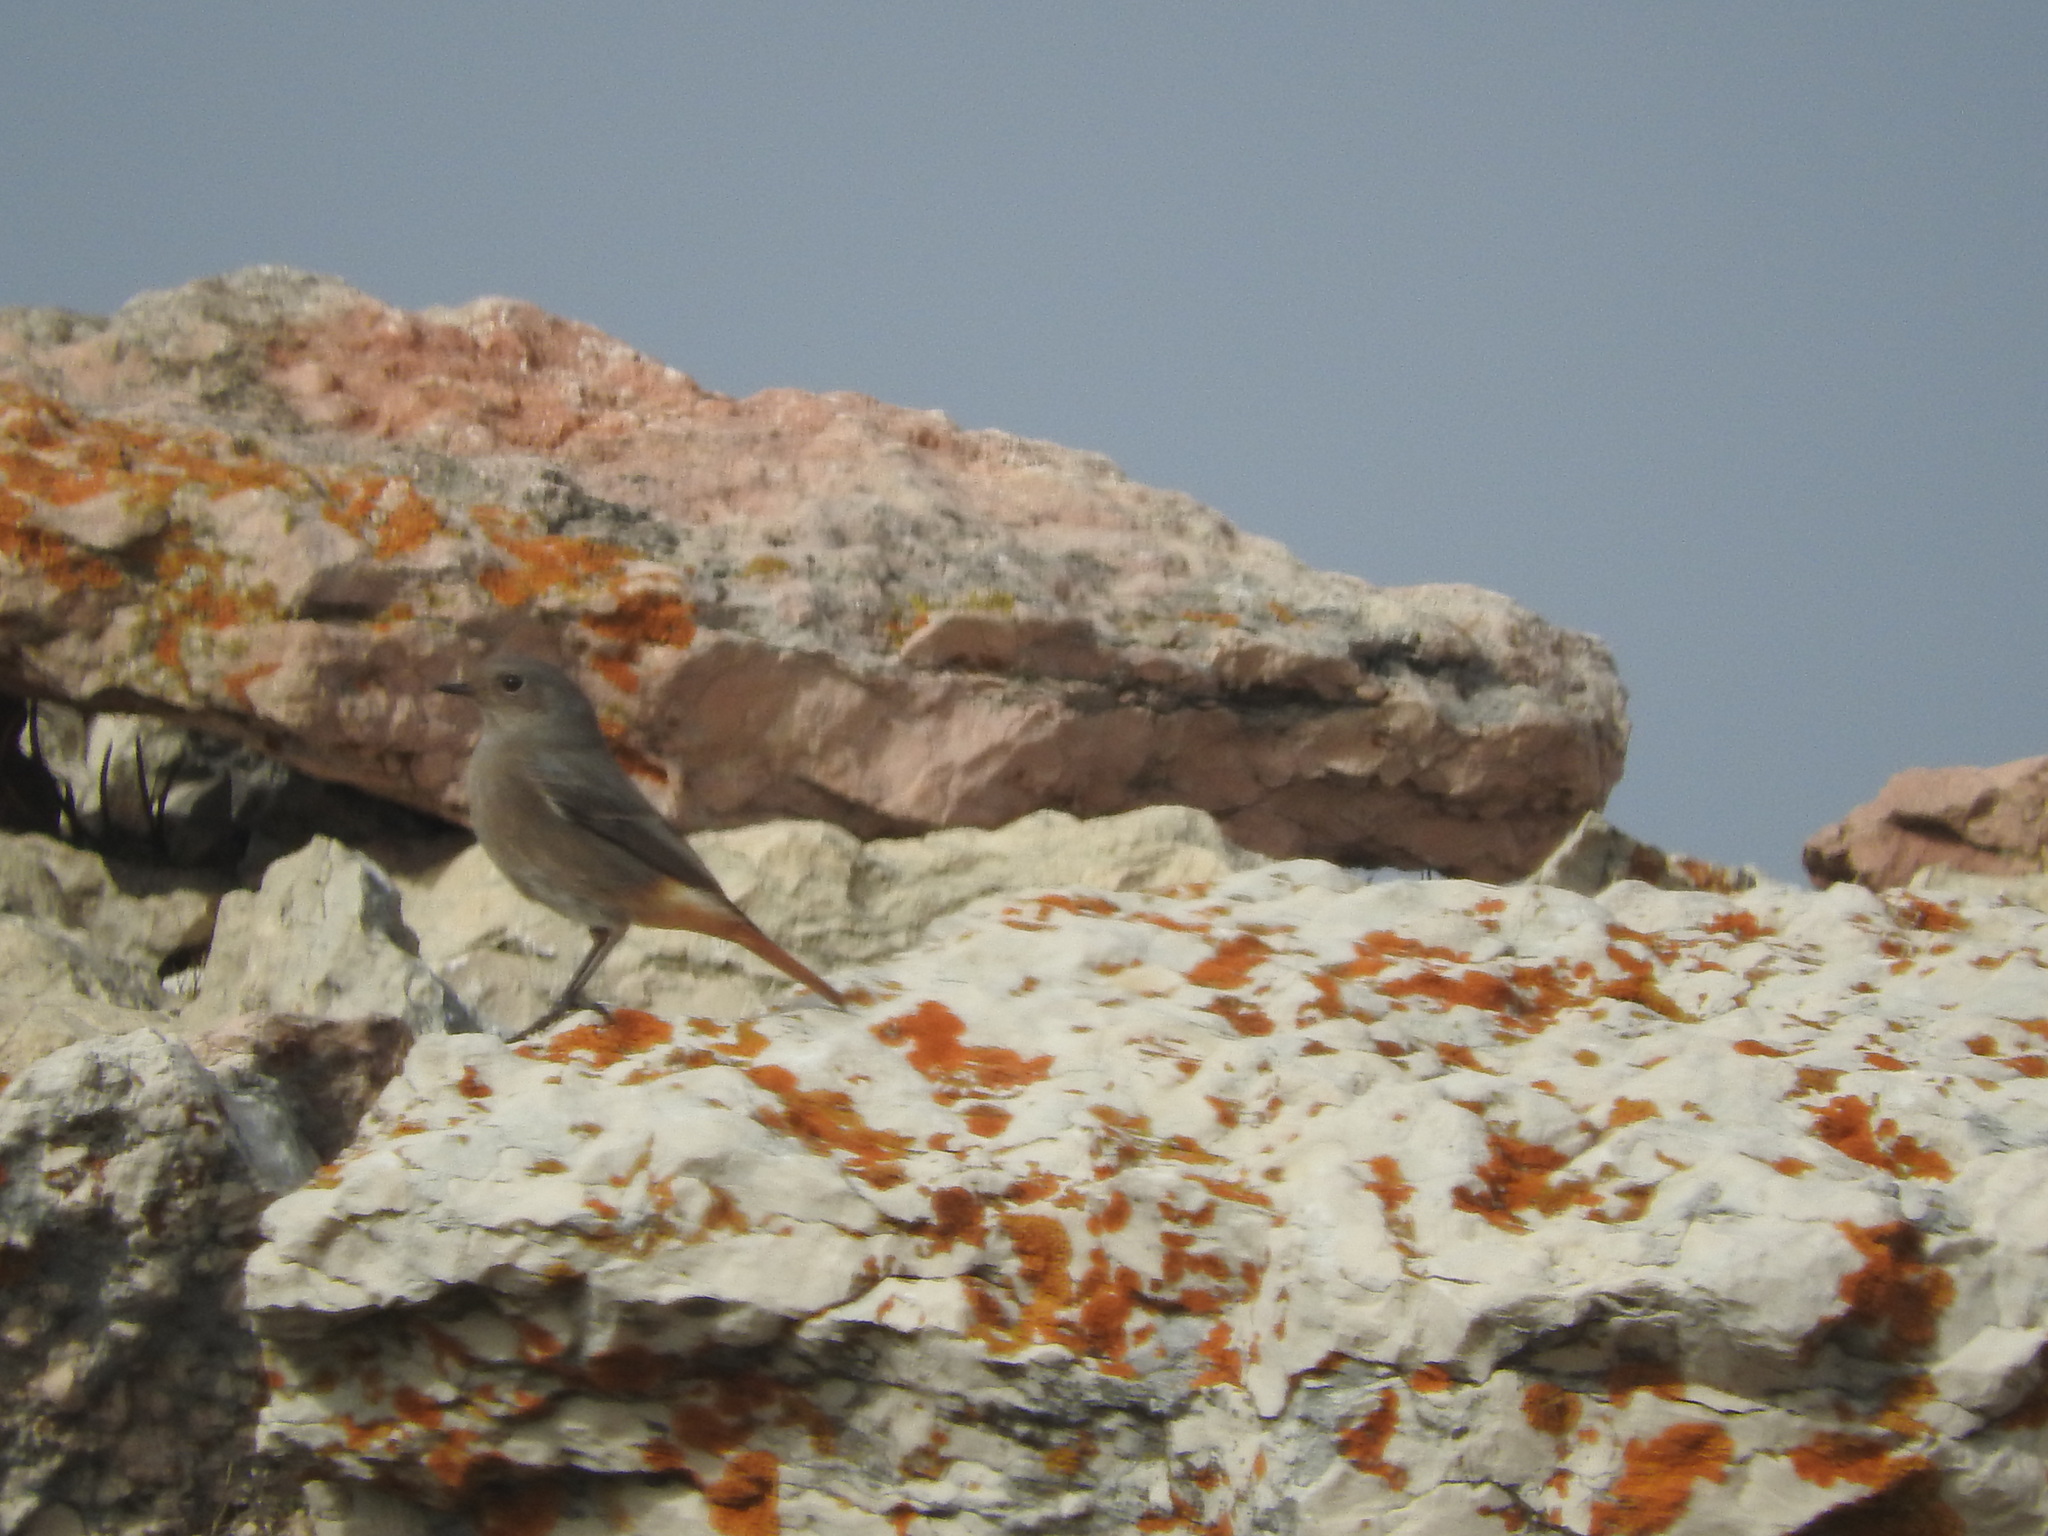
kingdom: Animalia
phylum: Chordata
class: Aves
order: Passeriformes
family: Muscicapidae
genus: Phoenicurus
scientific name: Phoenicurus ochruros
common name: Black redstart
